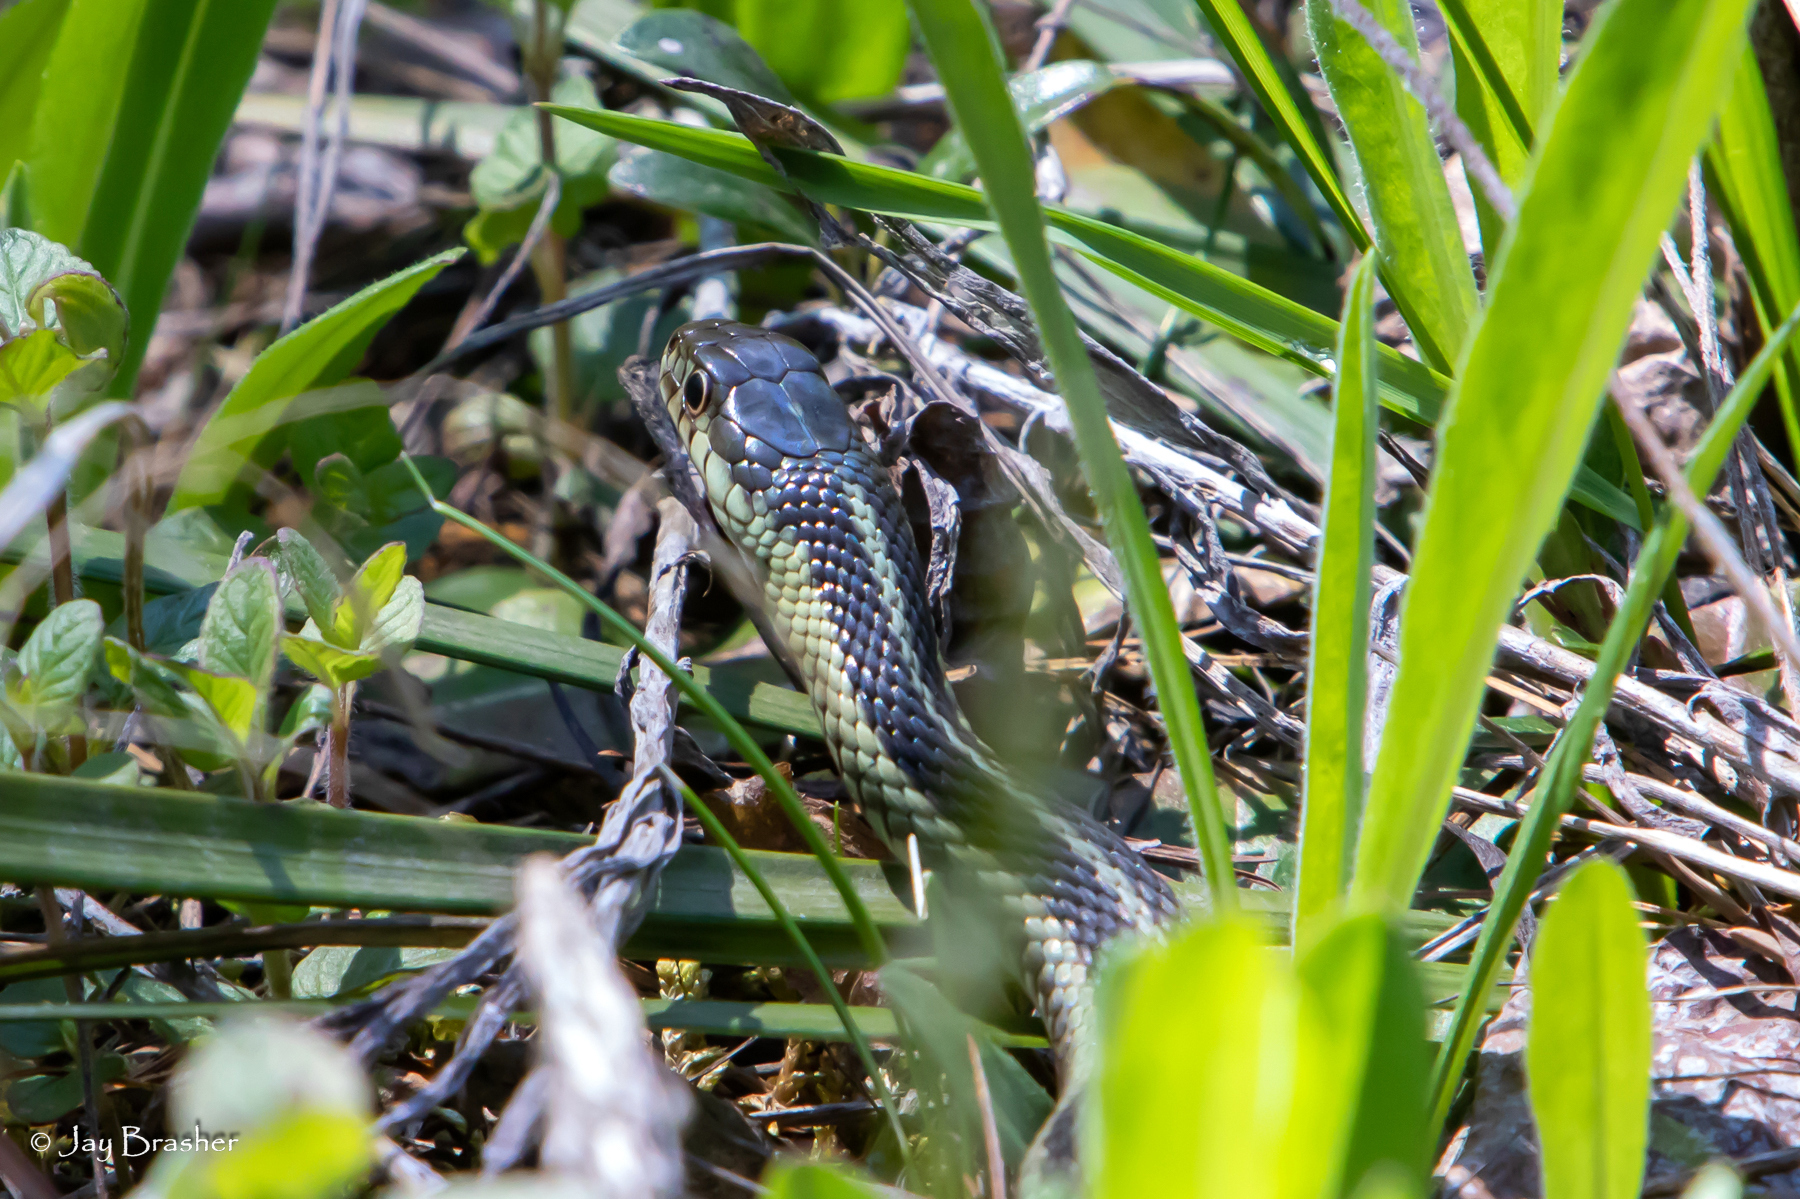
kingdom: Animalia
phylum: Chordata
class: Squamata
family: Colubridae
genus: Thamnophis
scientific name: Thamnophis sirtalis
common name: Common garter snake
